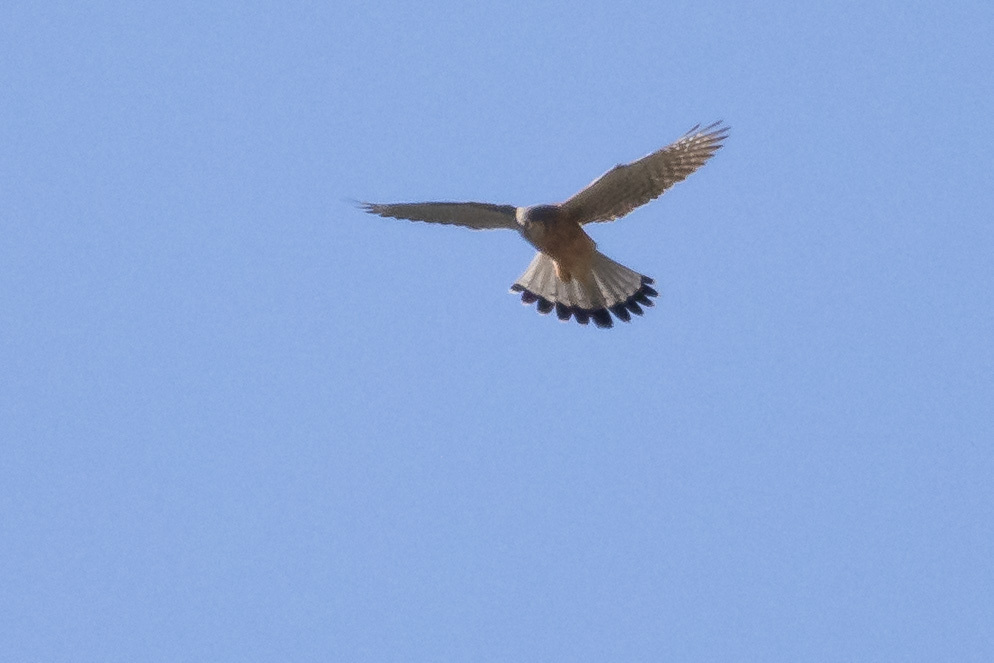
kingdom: Animalia
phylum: Chordata
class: Aves
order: Falconiformes
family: Falconidae
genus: Falco
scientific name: Falco tinnunculus
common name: Common kestrel
